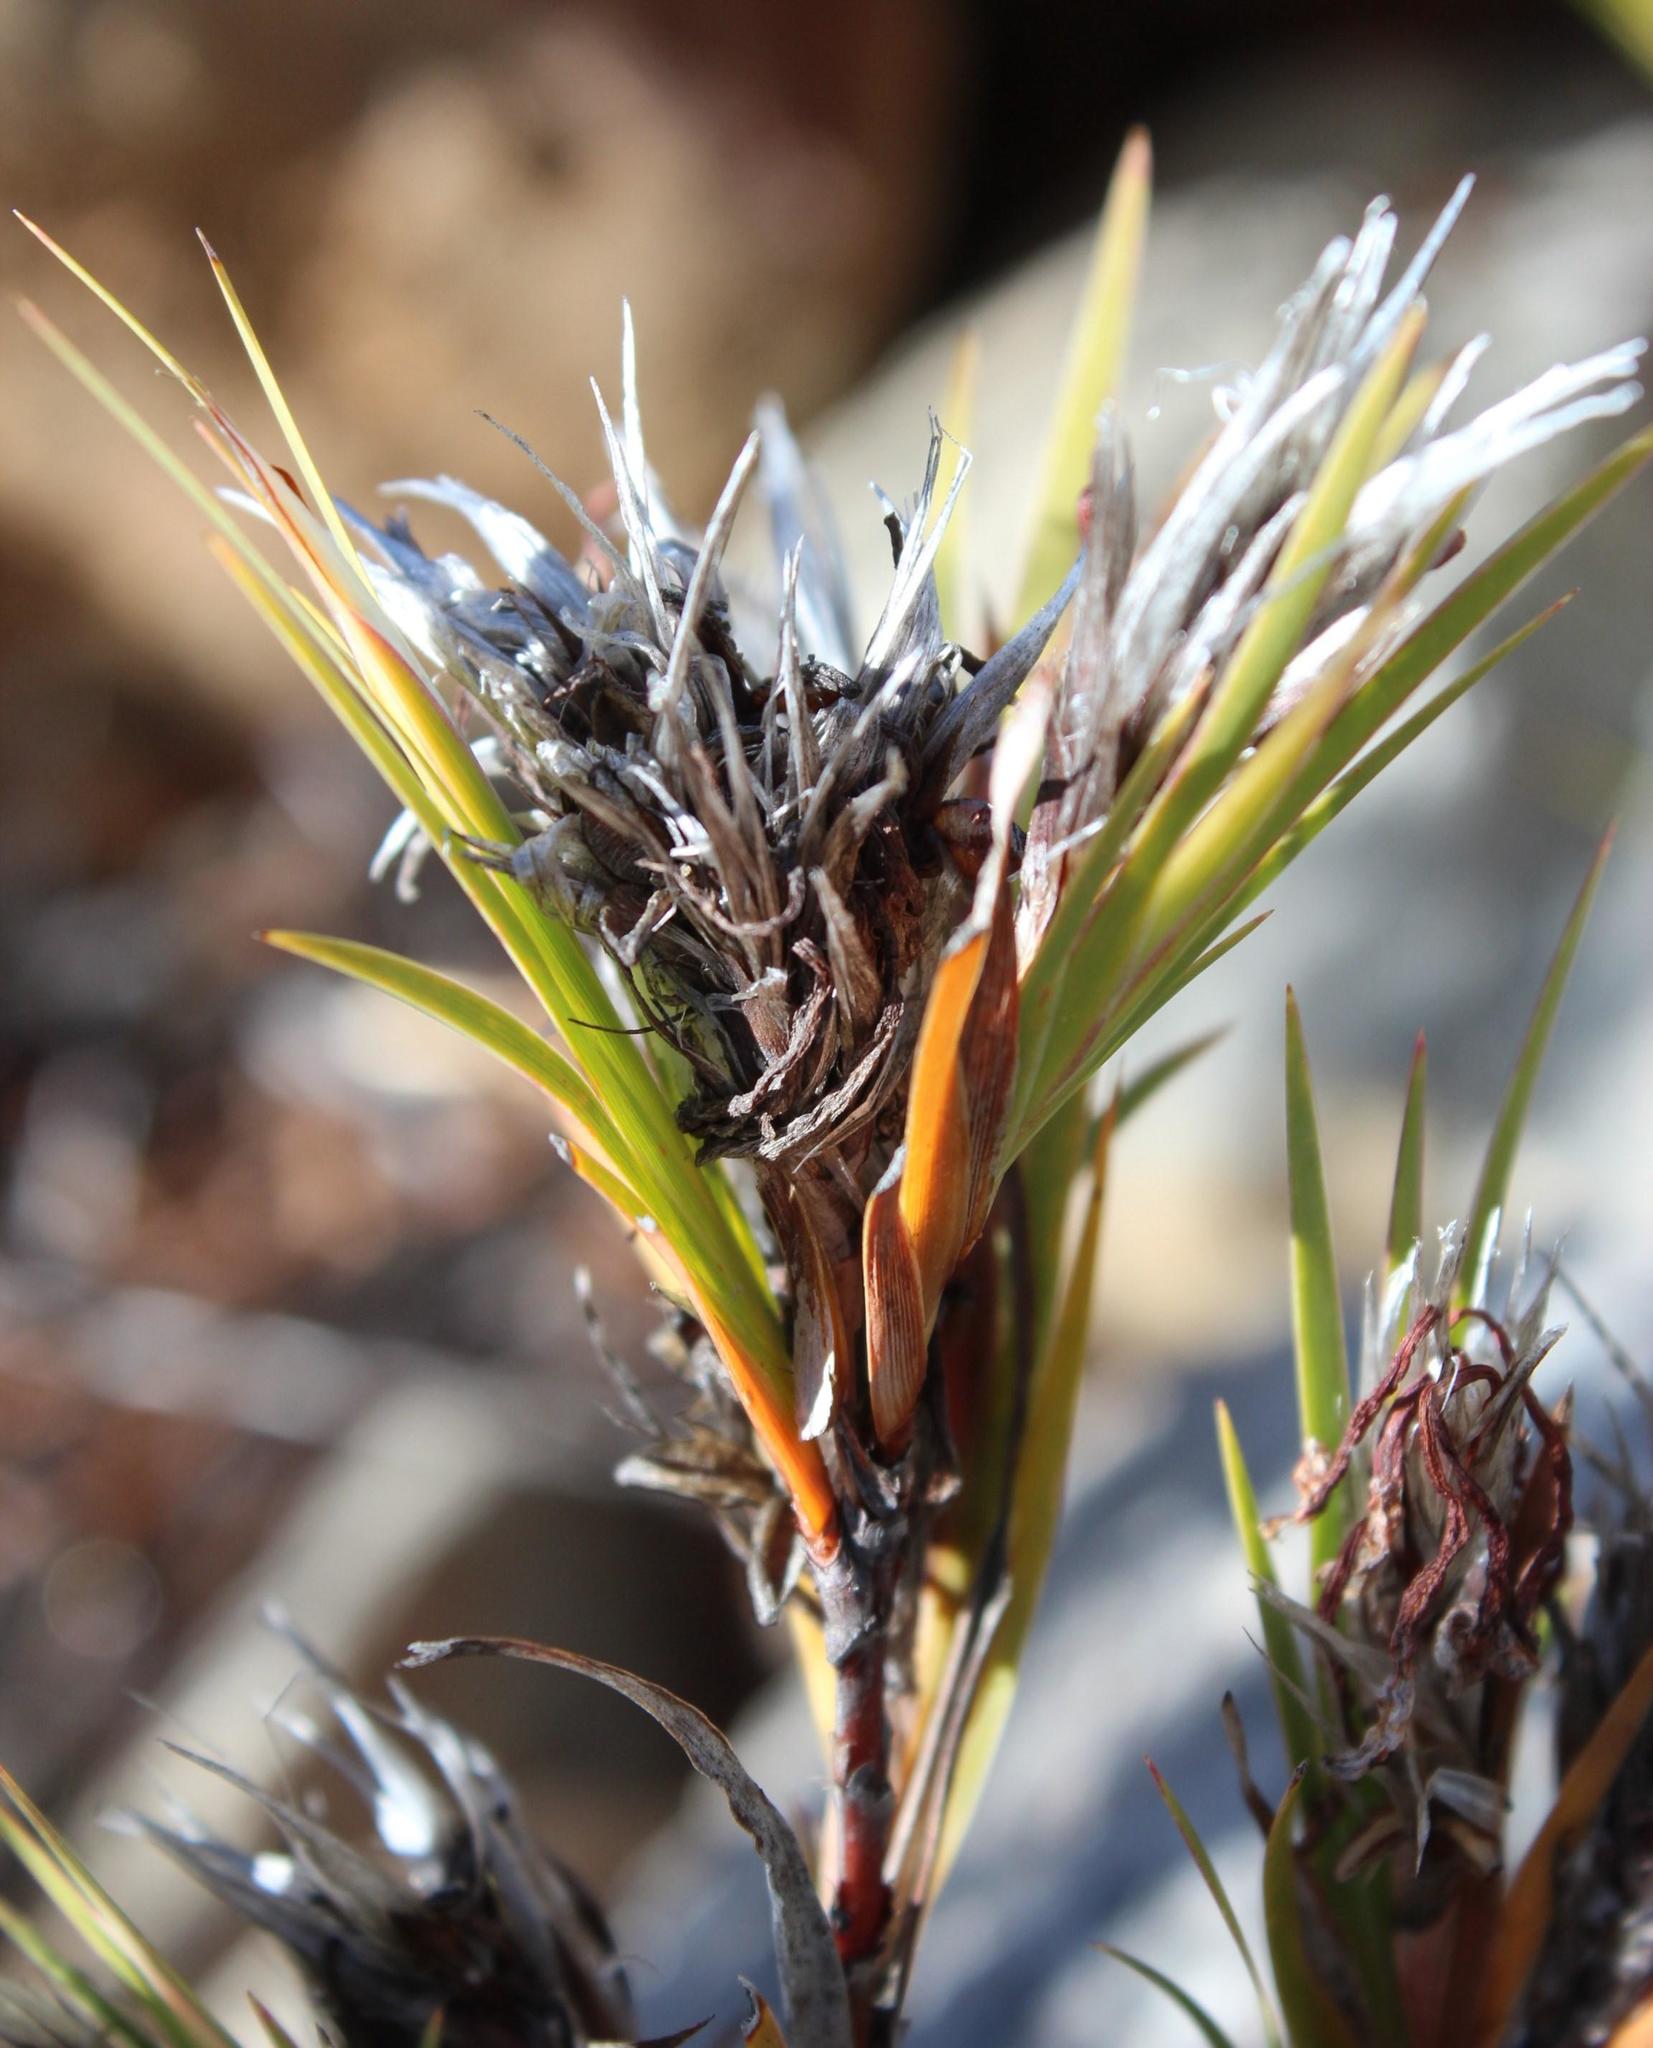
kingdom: Plantae
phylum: Tracheophyta
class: Liliopsida
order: Asparagales
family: Iridaceae
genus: Nivenia
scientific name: Nivenia inaequalis
